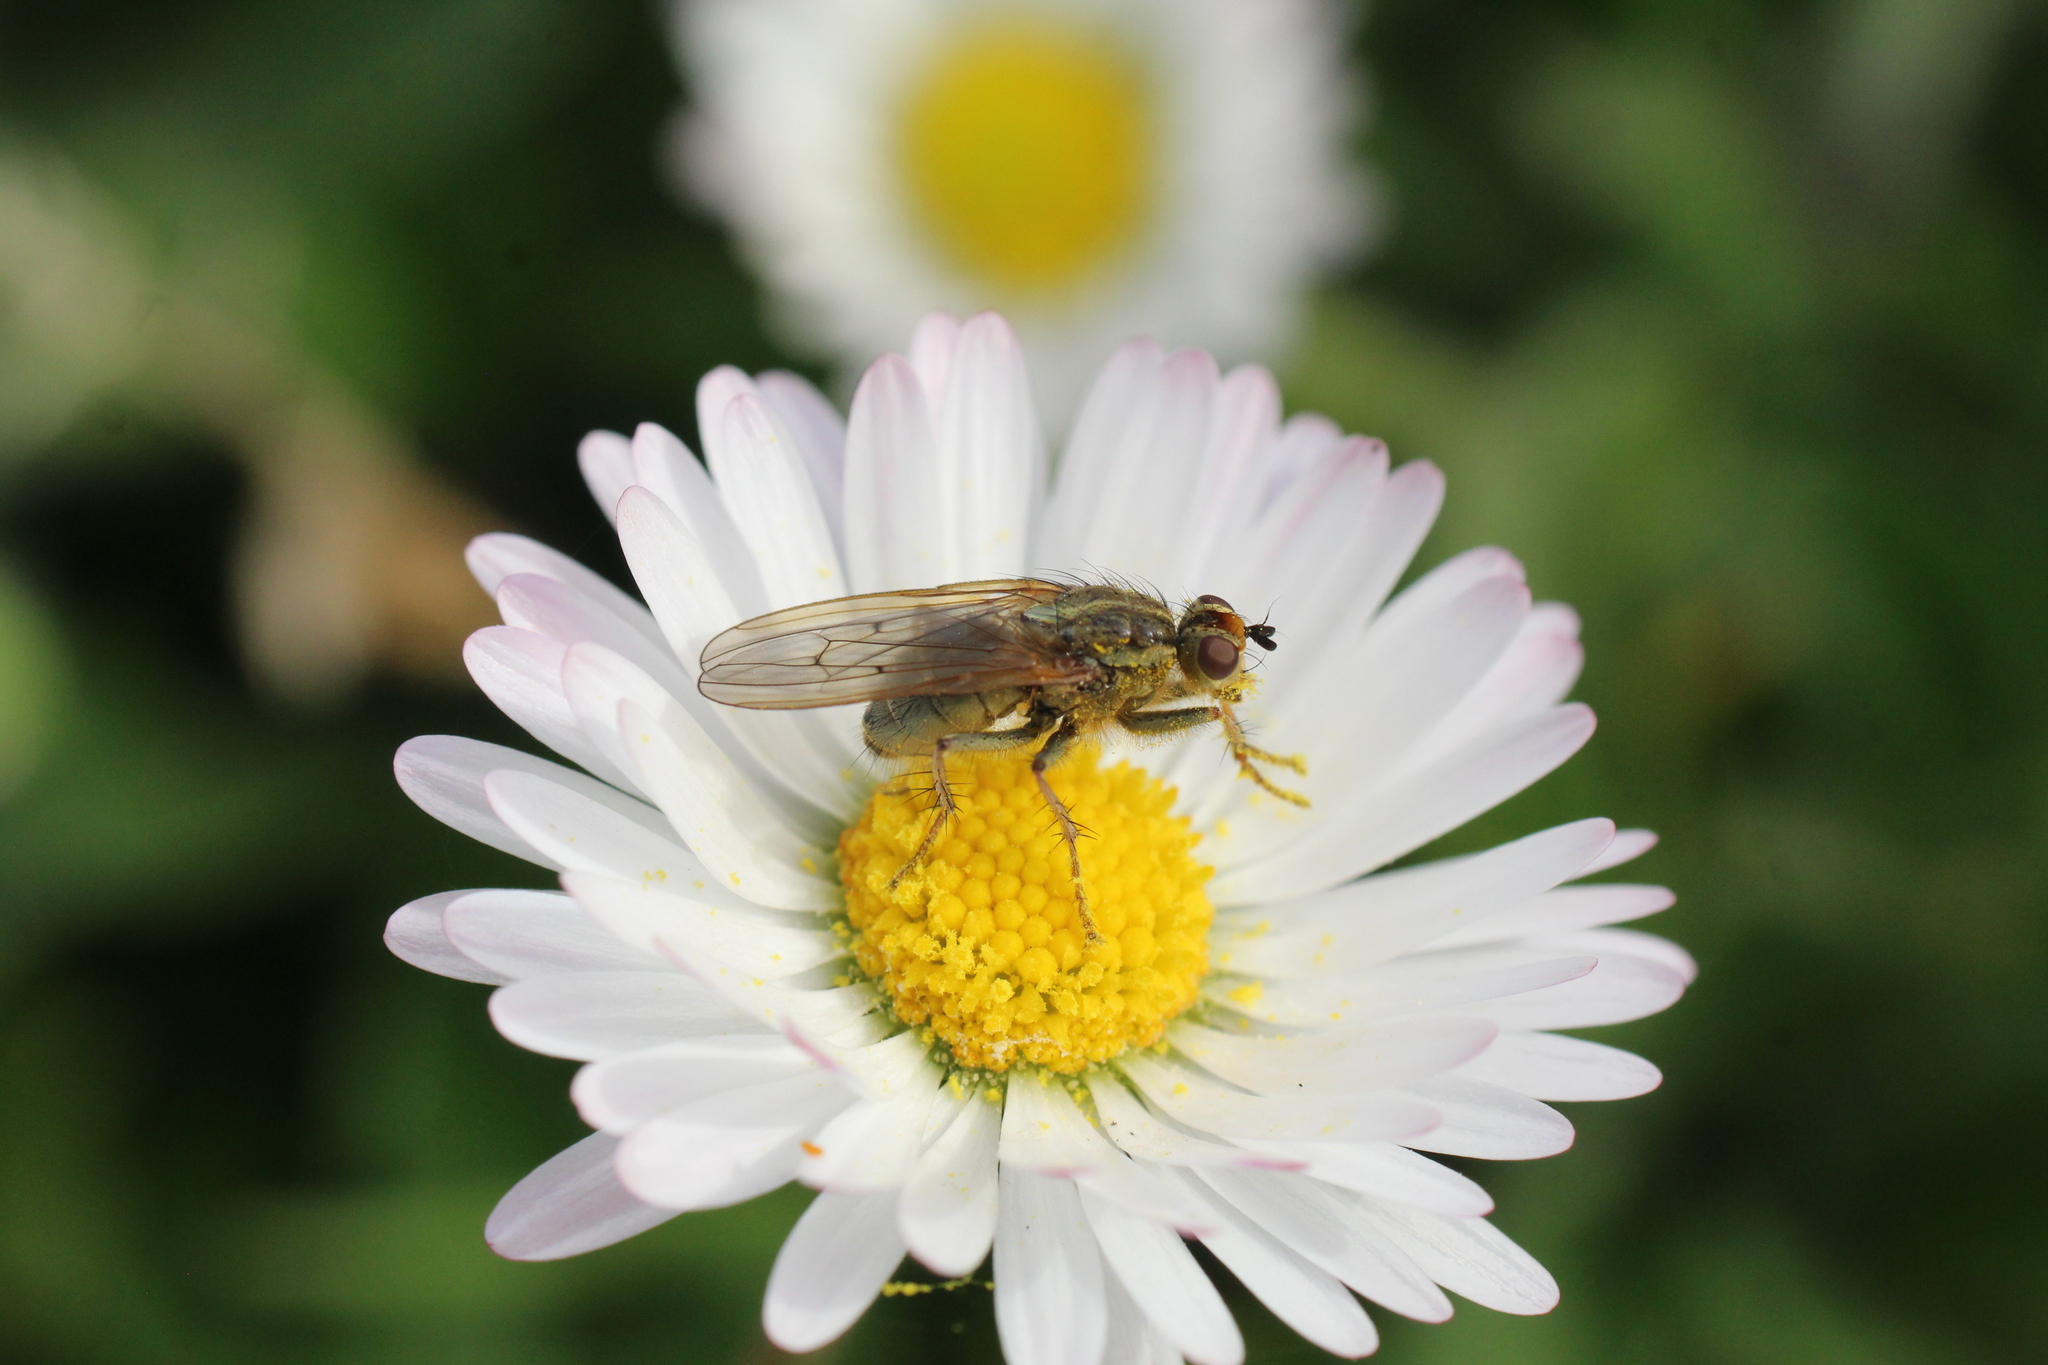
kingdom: Animalia
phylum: Arthropoda
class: Insecta
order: Diptera
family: Scathophagidae
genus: Scathophaga
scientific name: Scathophaga stercoraria
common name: Yellow dung fly
